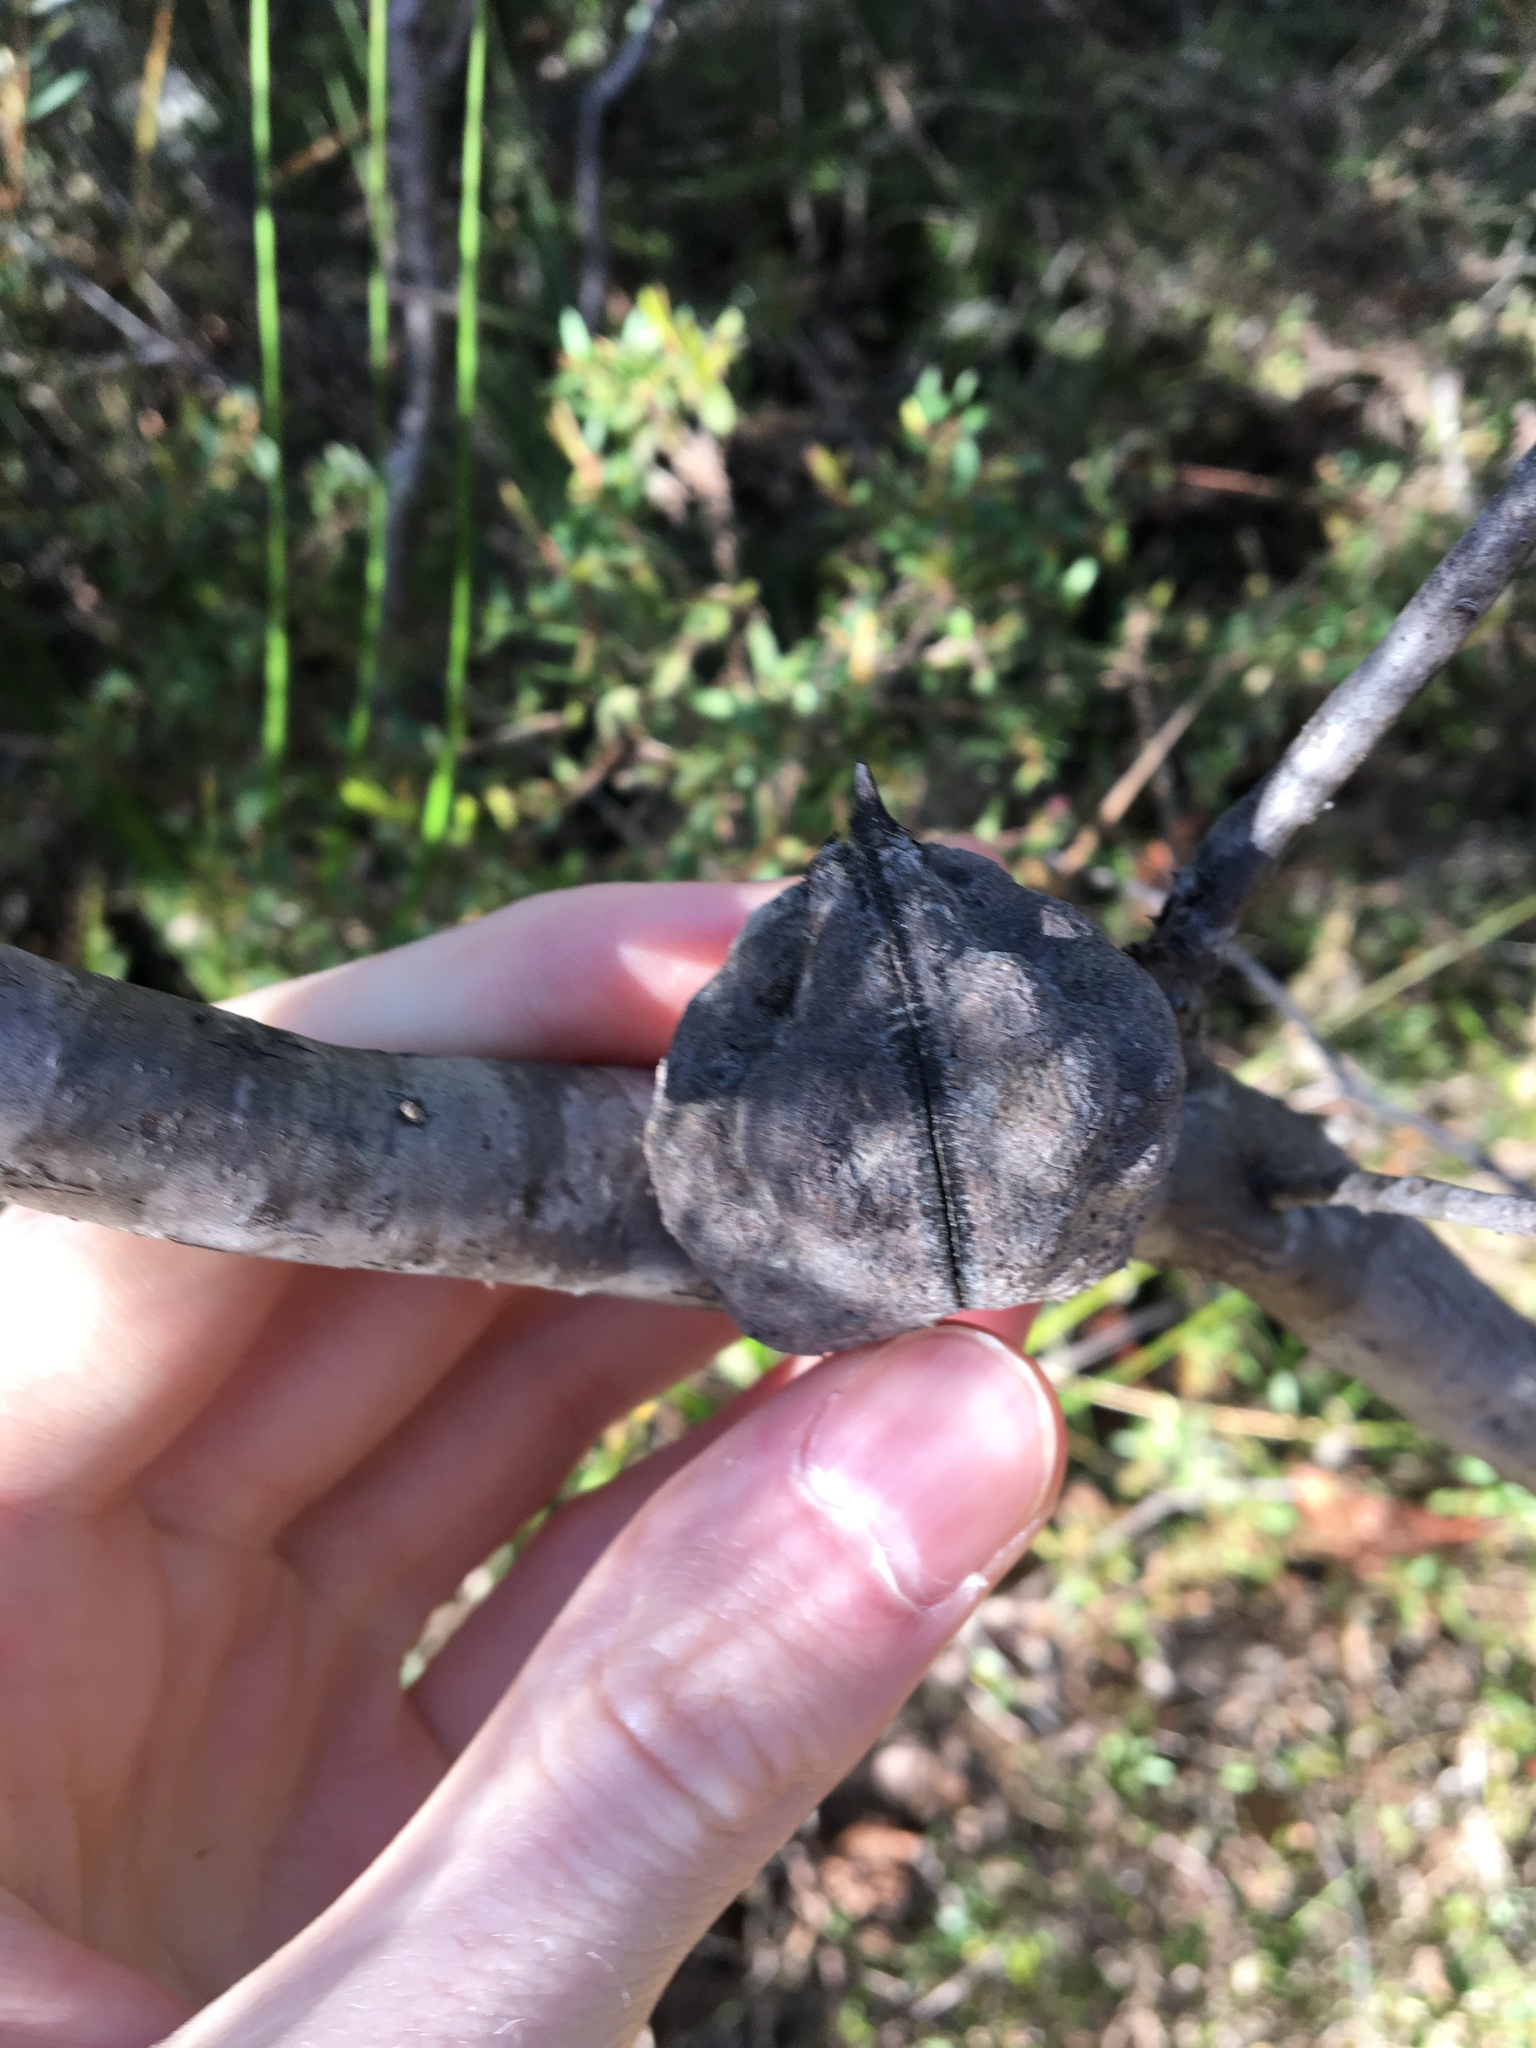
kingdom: Plantae
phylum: Tracheophyta
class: Magnoliopsida
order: Proteales
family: Proteaceae
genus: Hakea
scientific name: Hakea sericea
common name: Needle bush
